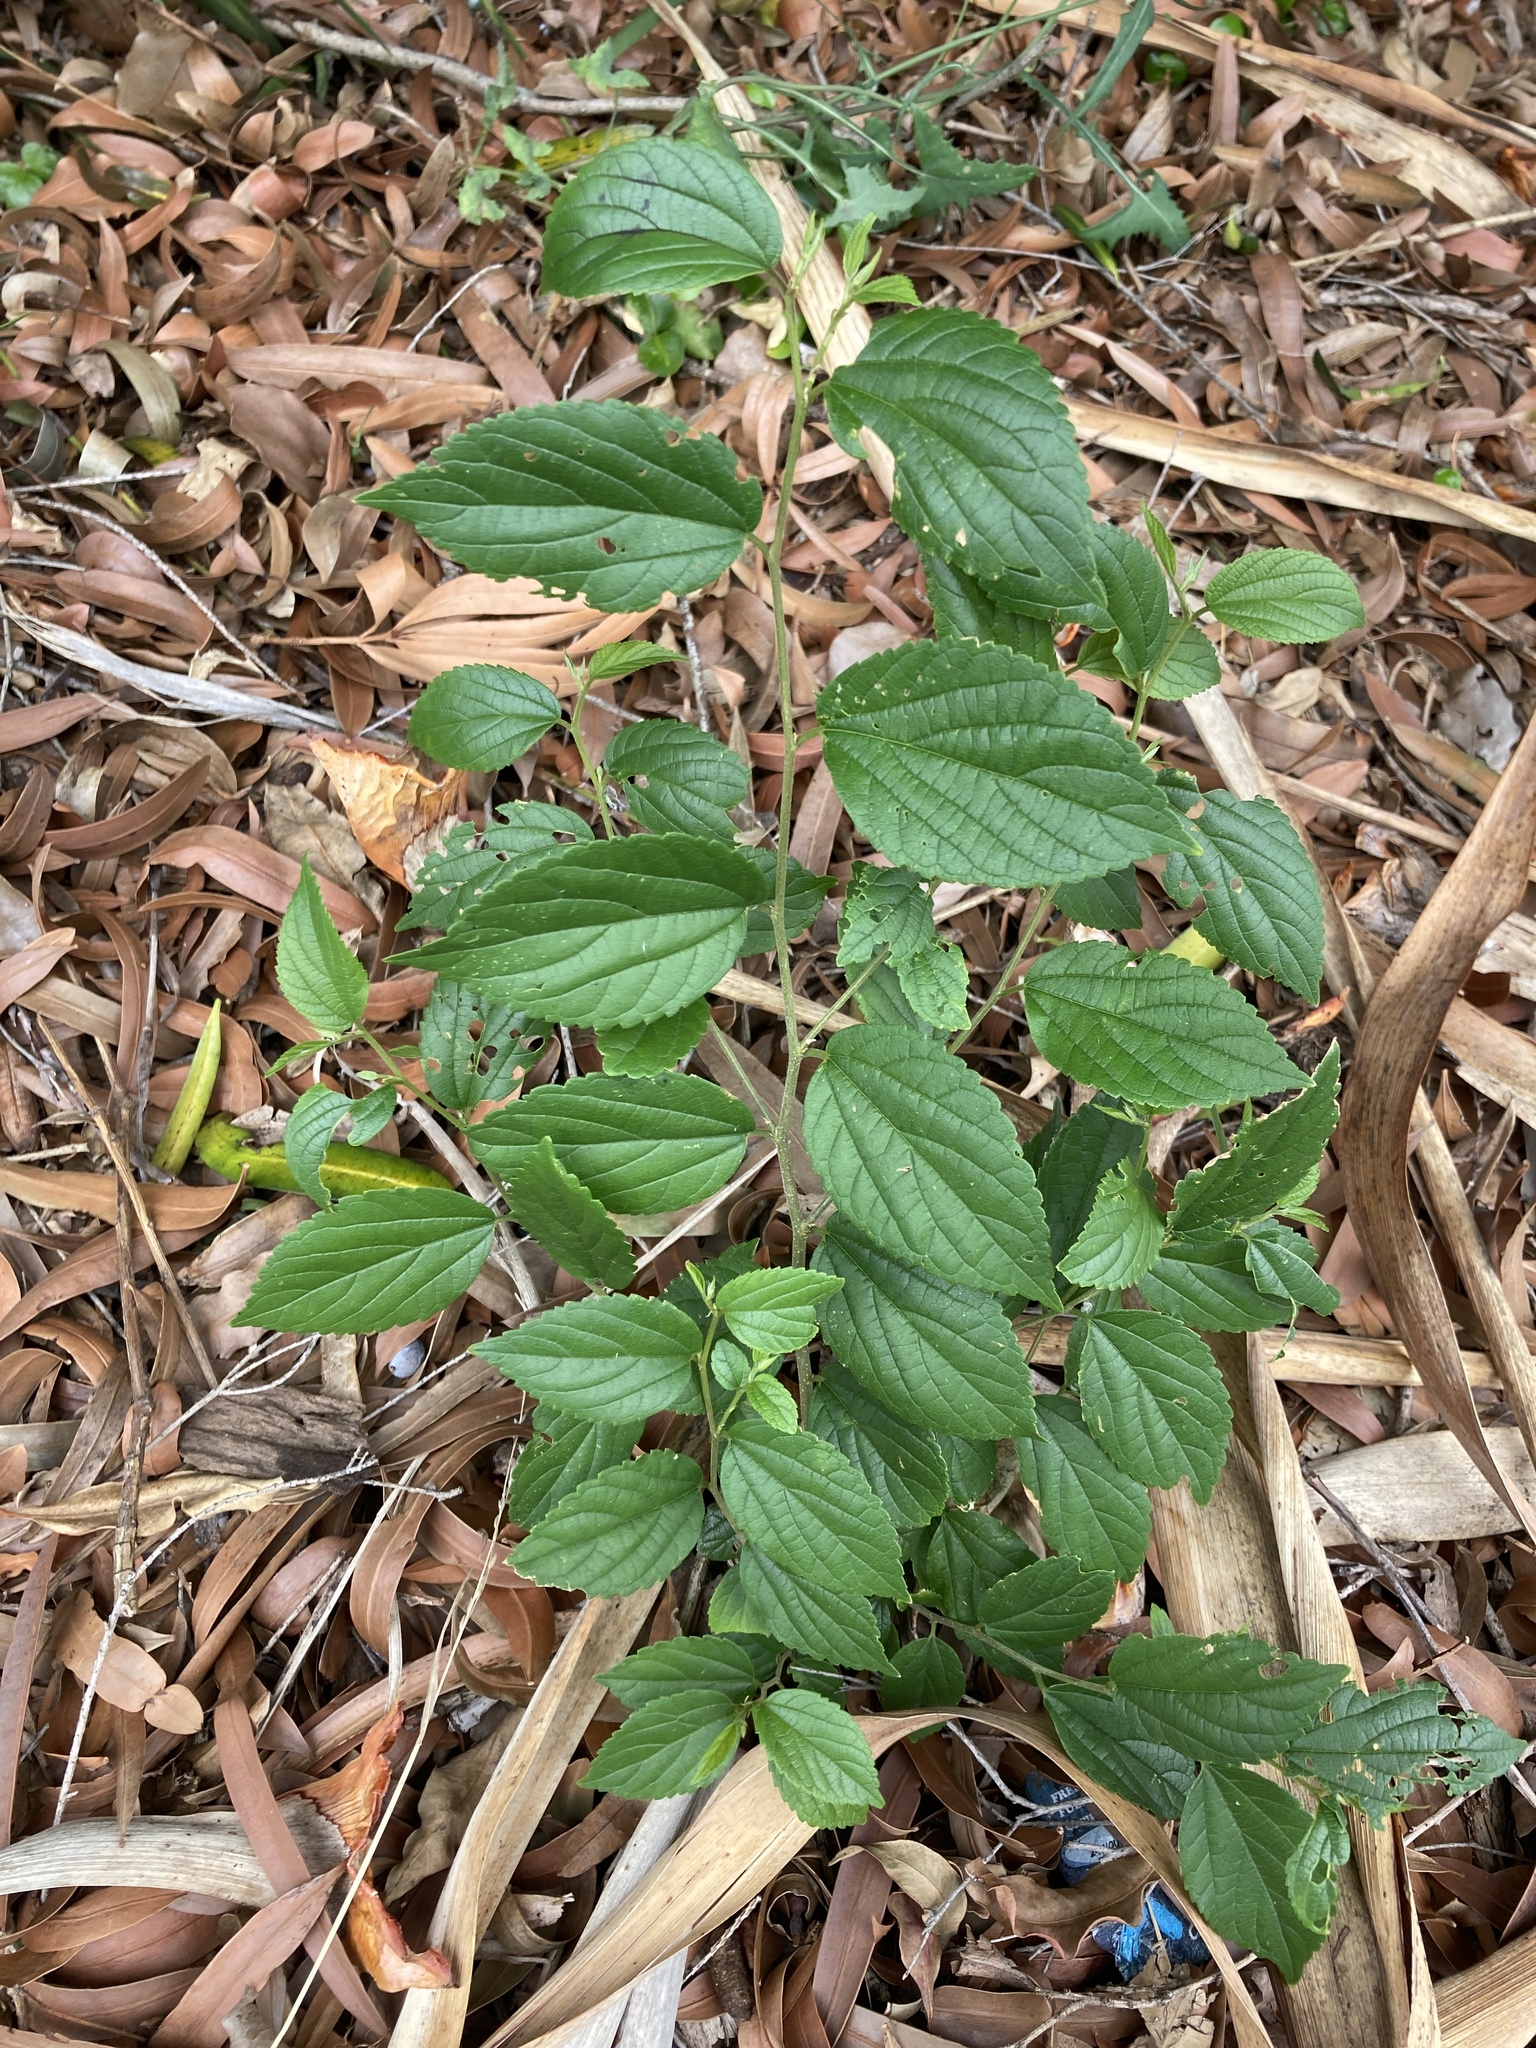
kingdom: Plantae
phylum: Tracheophyta
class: Magnoliopsida
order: Rosales
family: Cannabaceae
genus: Celtis
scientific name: Celtis sinensis
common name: Chinese hackberry
